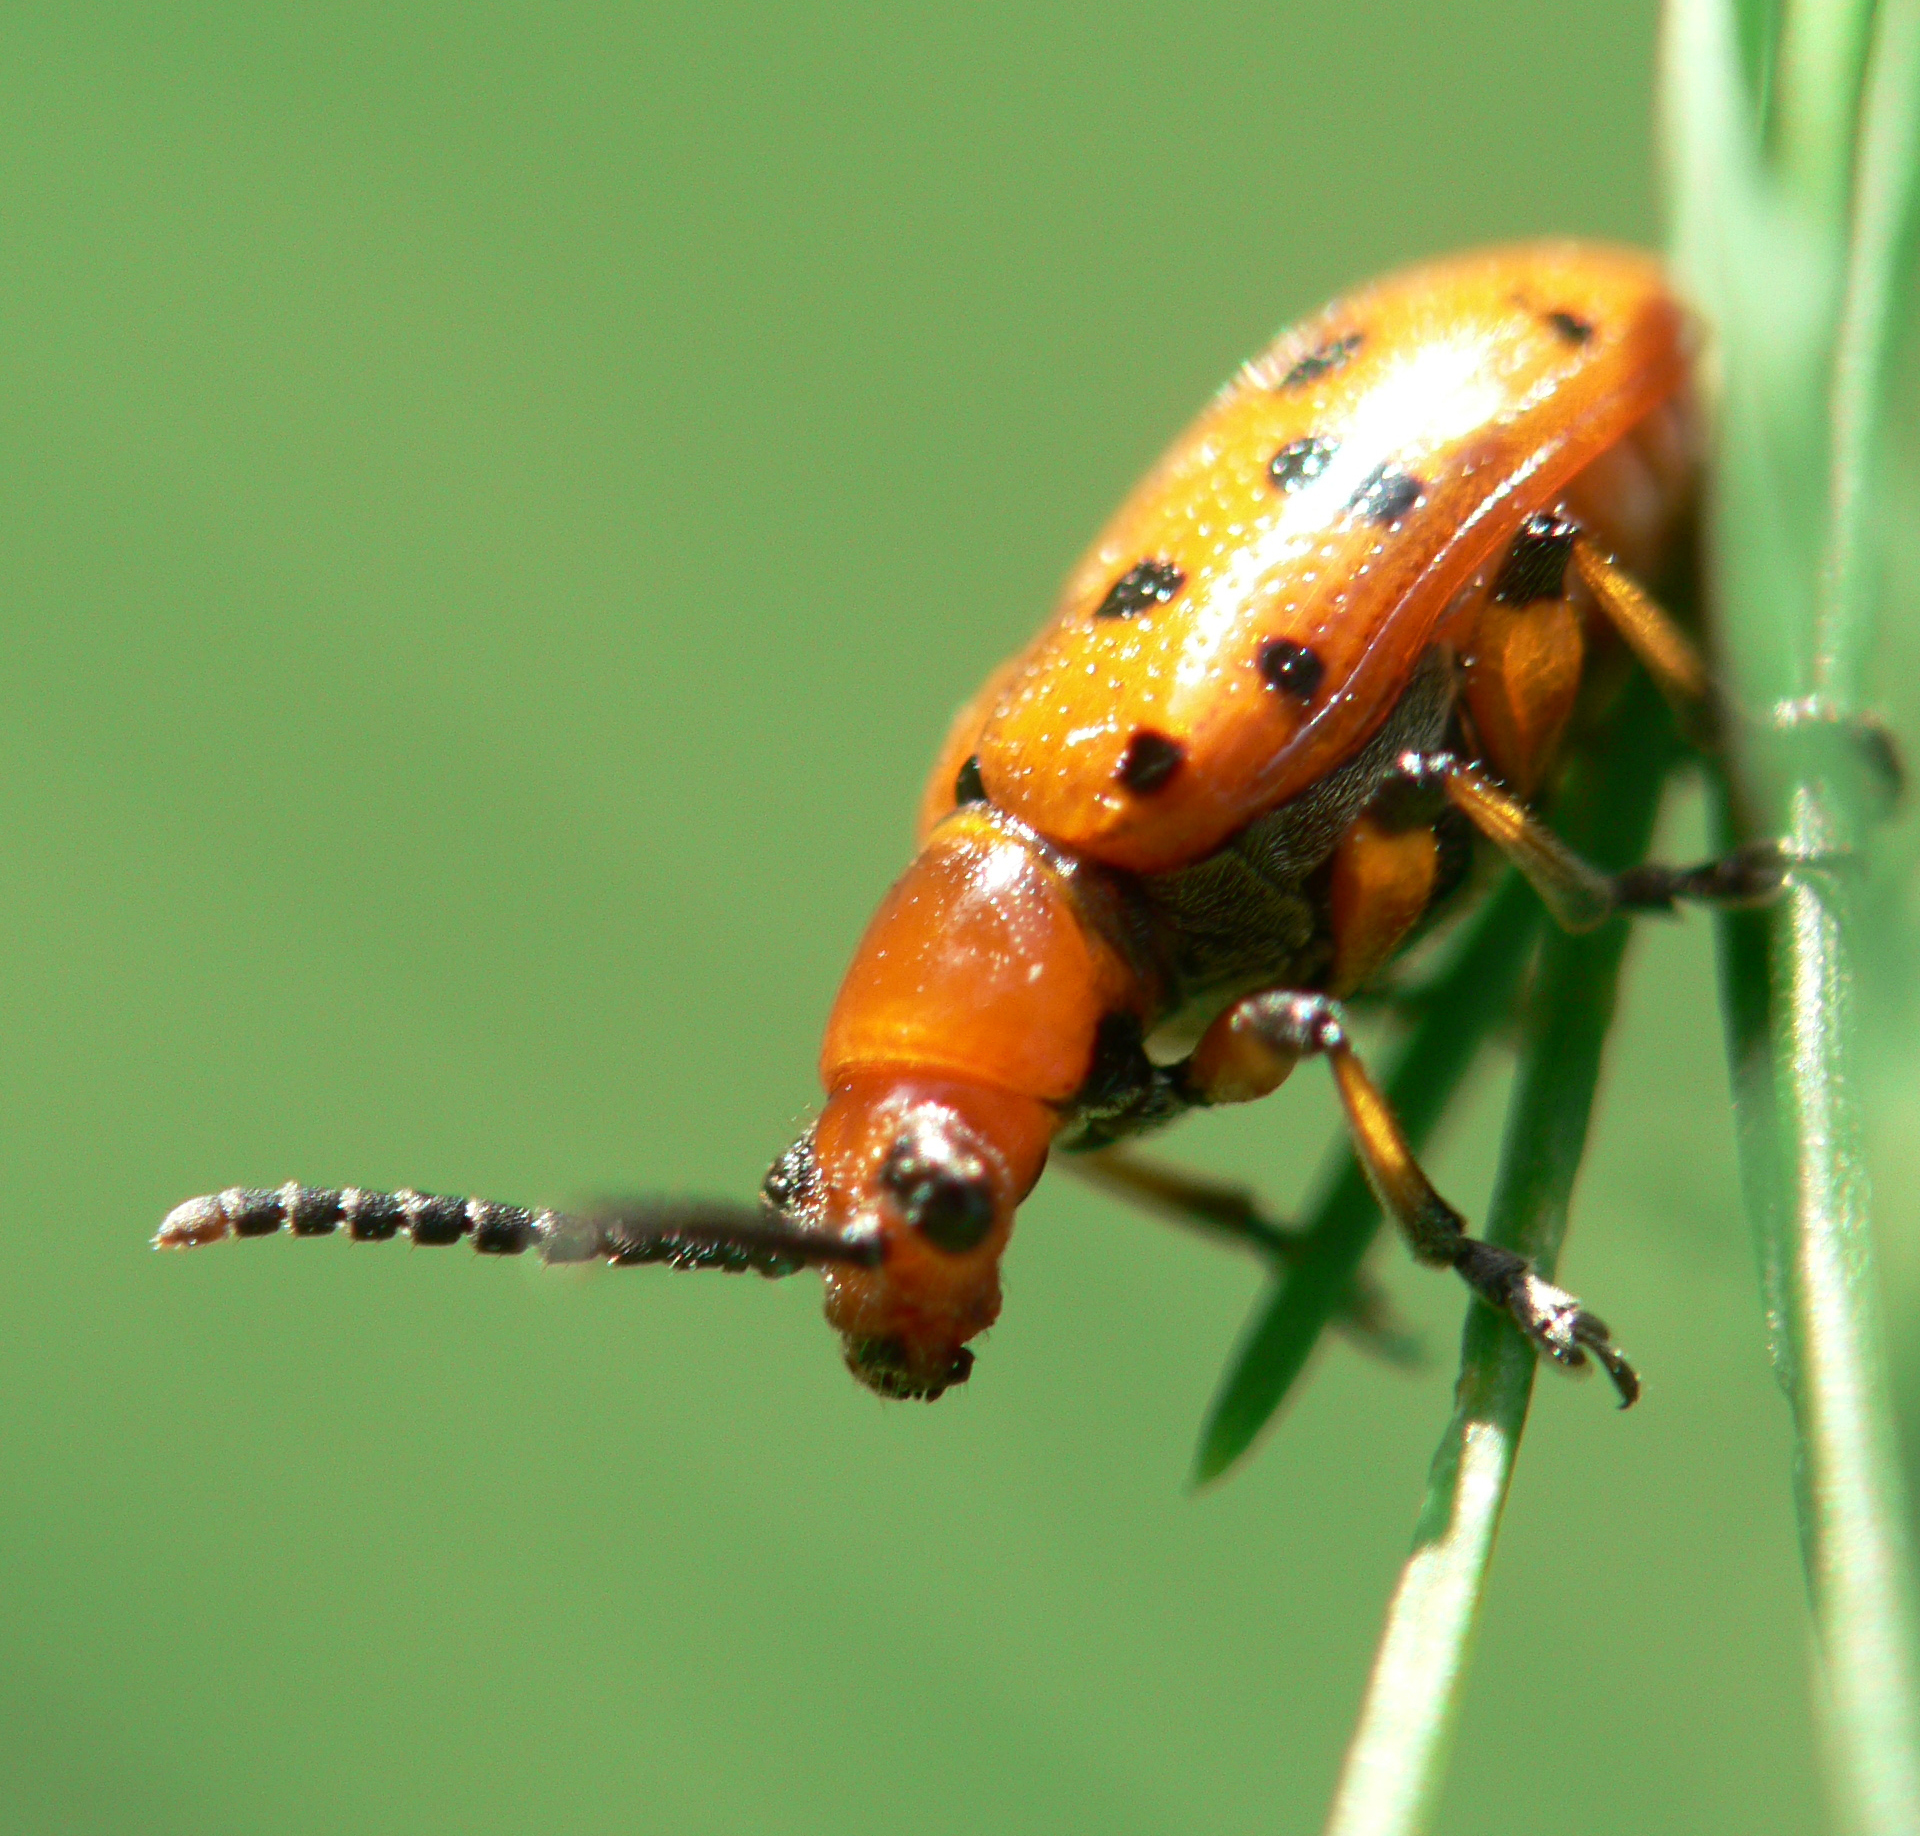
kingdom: Animalia
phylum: Arthropoda
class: Insecta
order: Coleoptera
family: Chrysomelidae
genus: Crioceris
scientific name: Crioceris duodecimpunctata
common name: Twelve-spotted asparagus beetle
